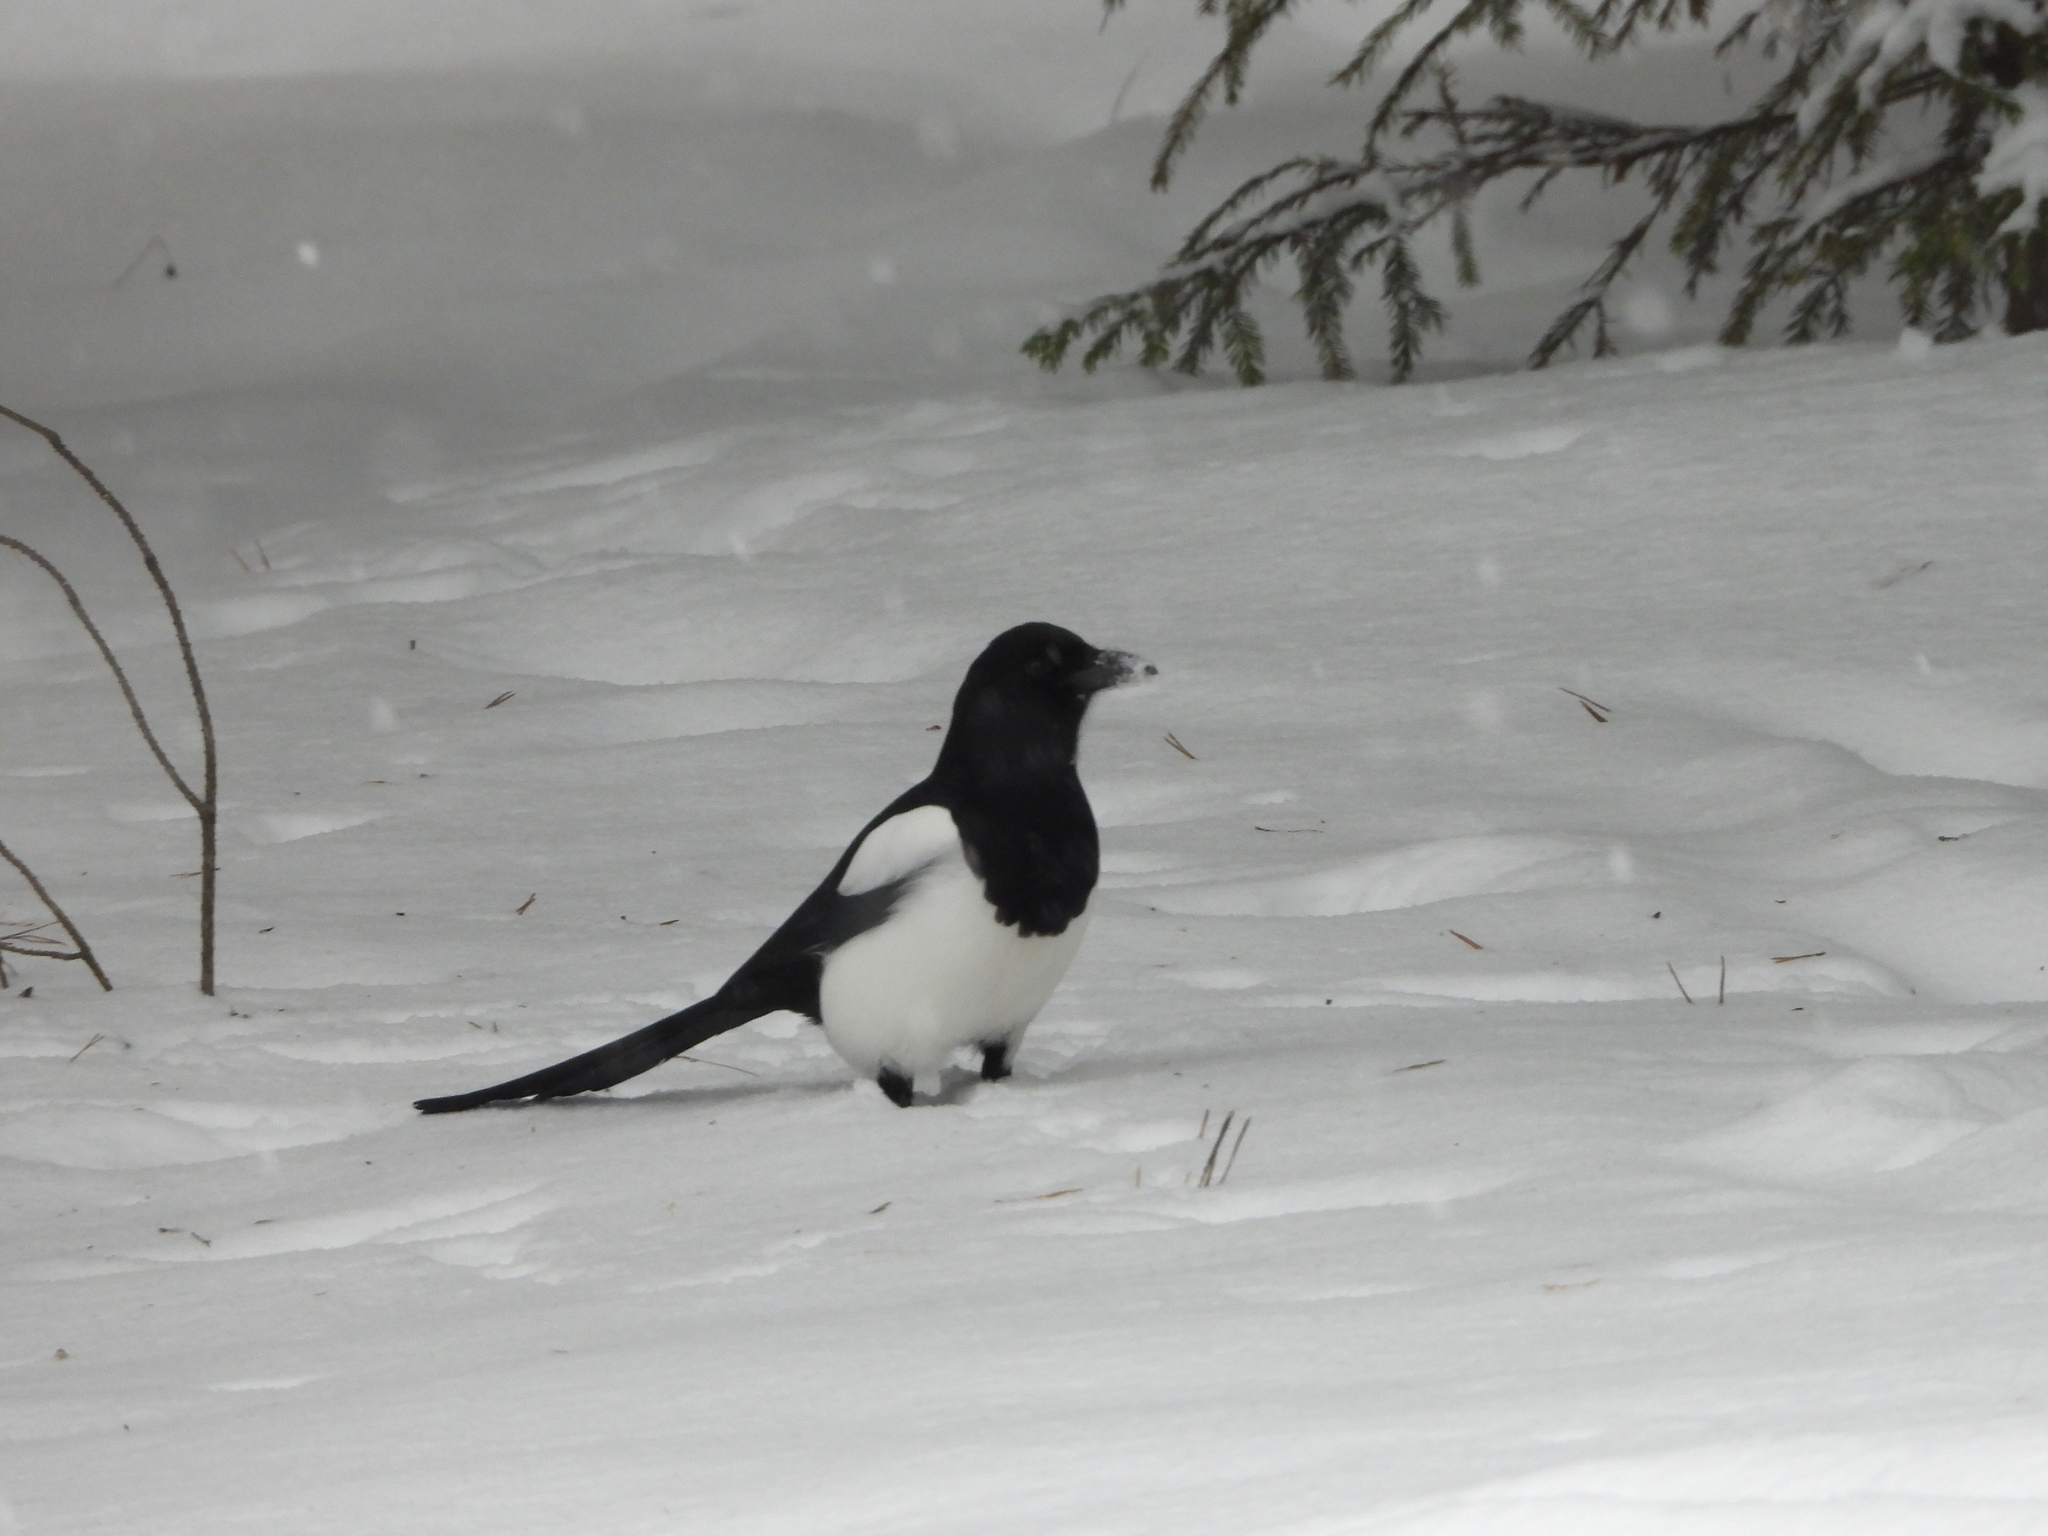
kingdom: Animalia
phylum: Chordata
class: Aves
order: Passeriformes
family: Corvidae
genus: Pica
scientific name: Pica pica
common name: Eurasian magpie
